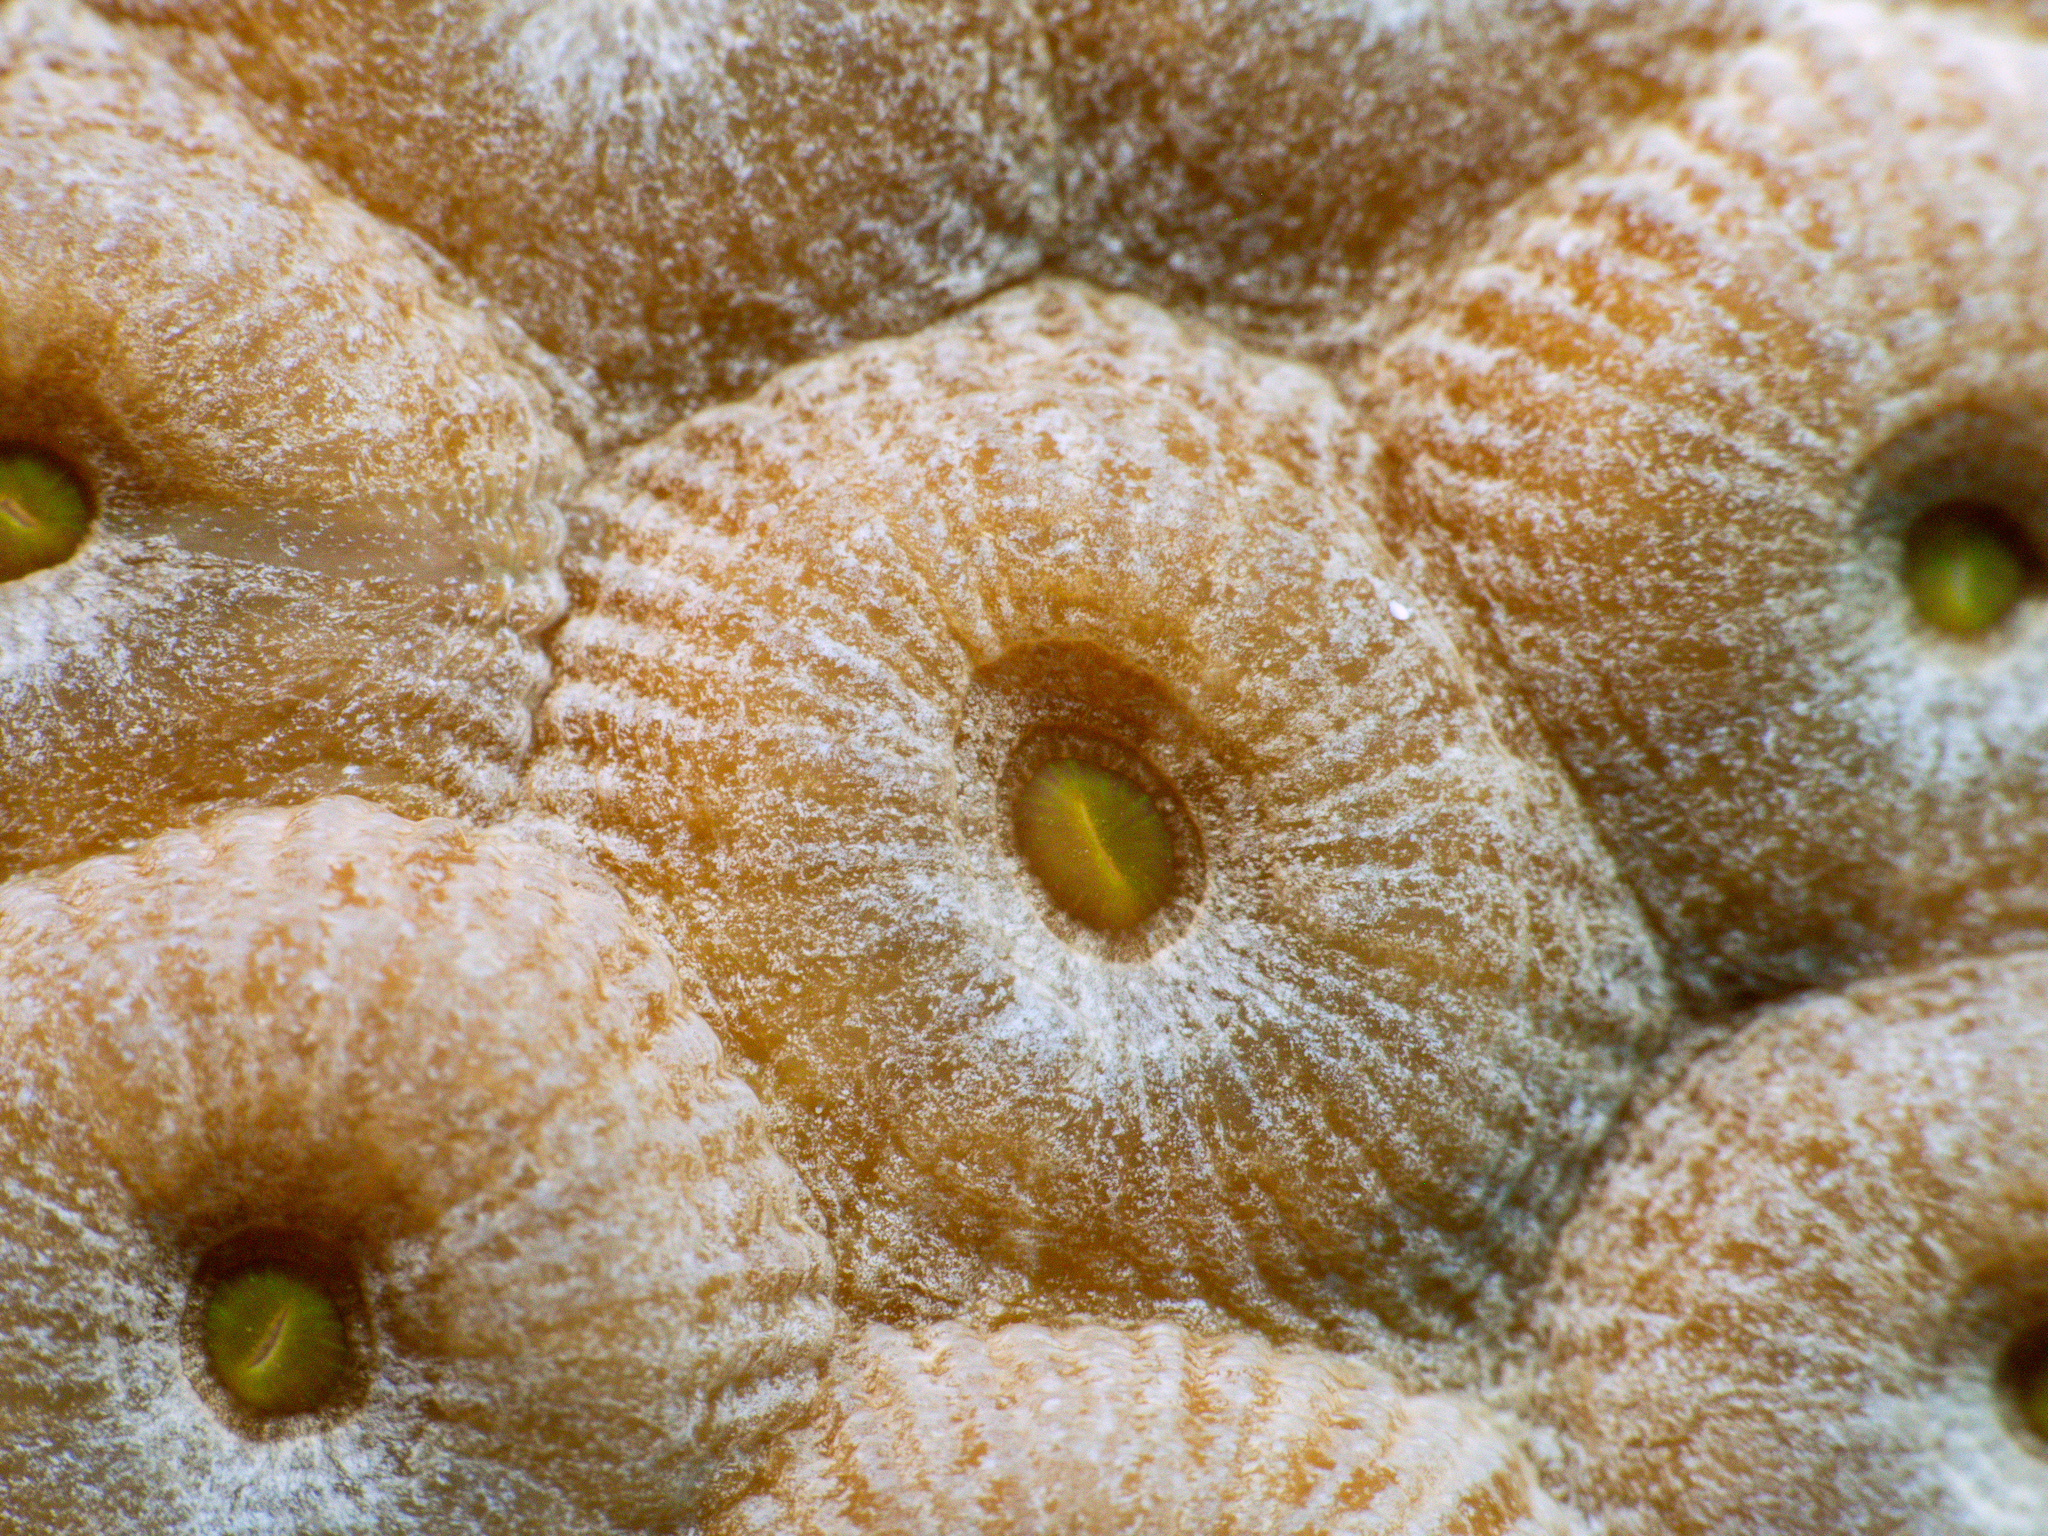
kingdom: Animalia
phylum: Cnidaria
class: Anthozoa
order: Scleractinia
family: Montastraeidae
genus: Montastraea
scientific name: Montastraea cavernosa
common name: Great star coral
